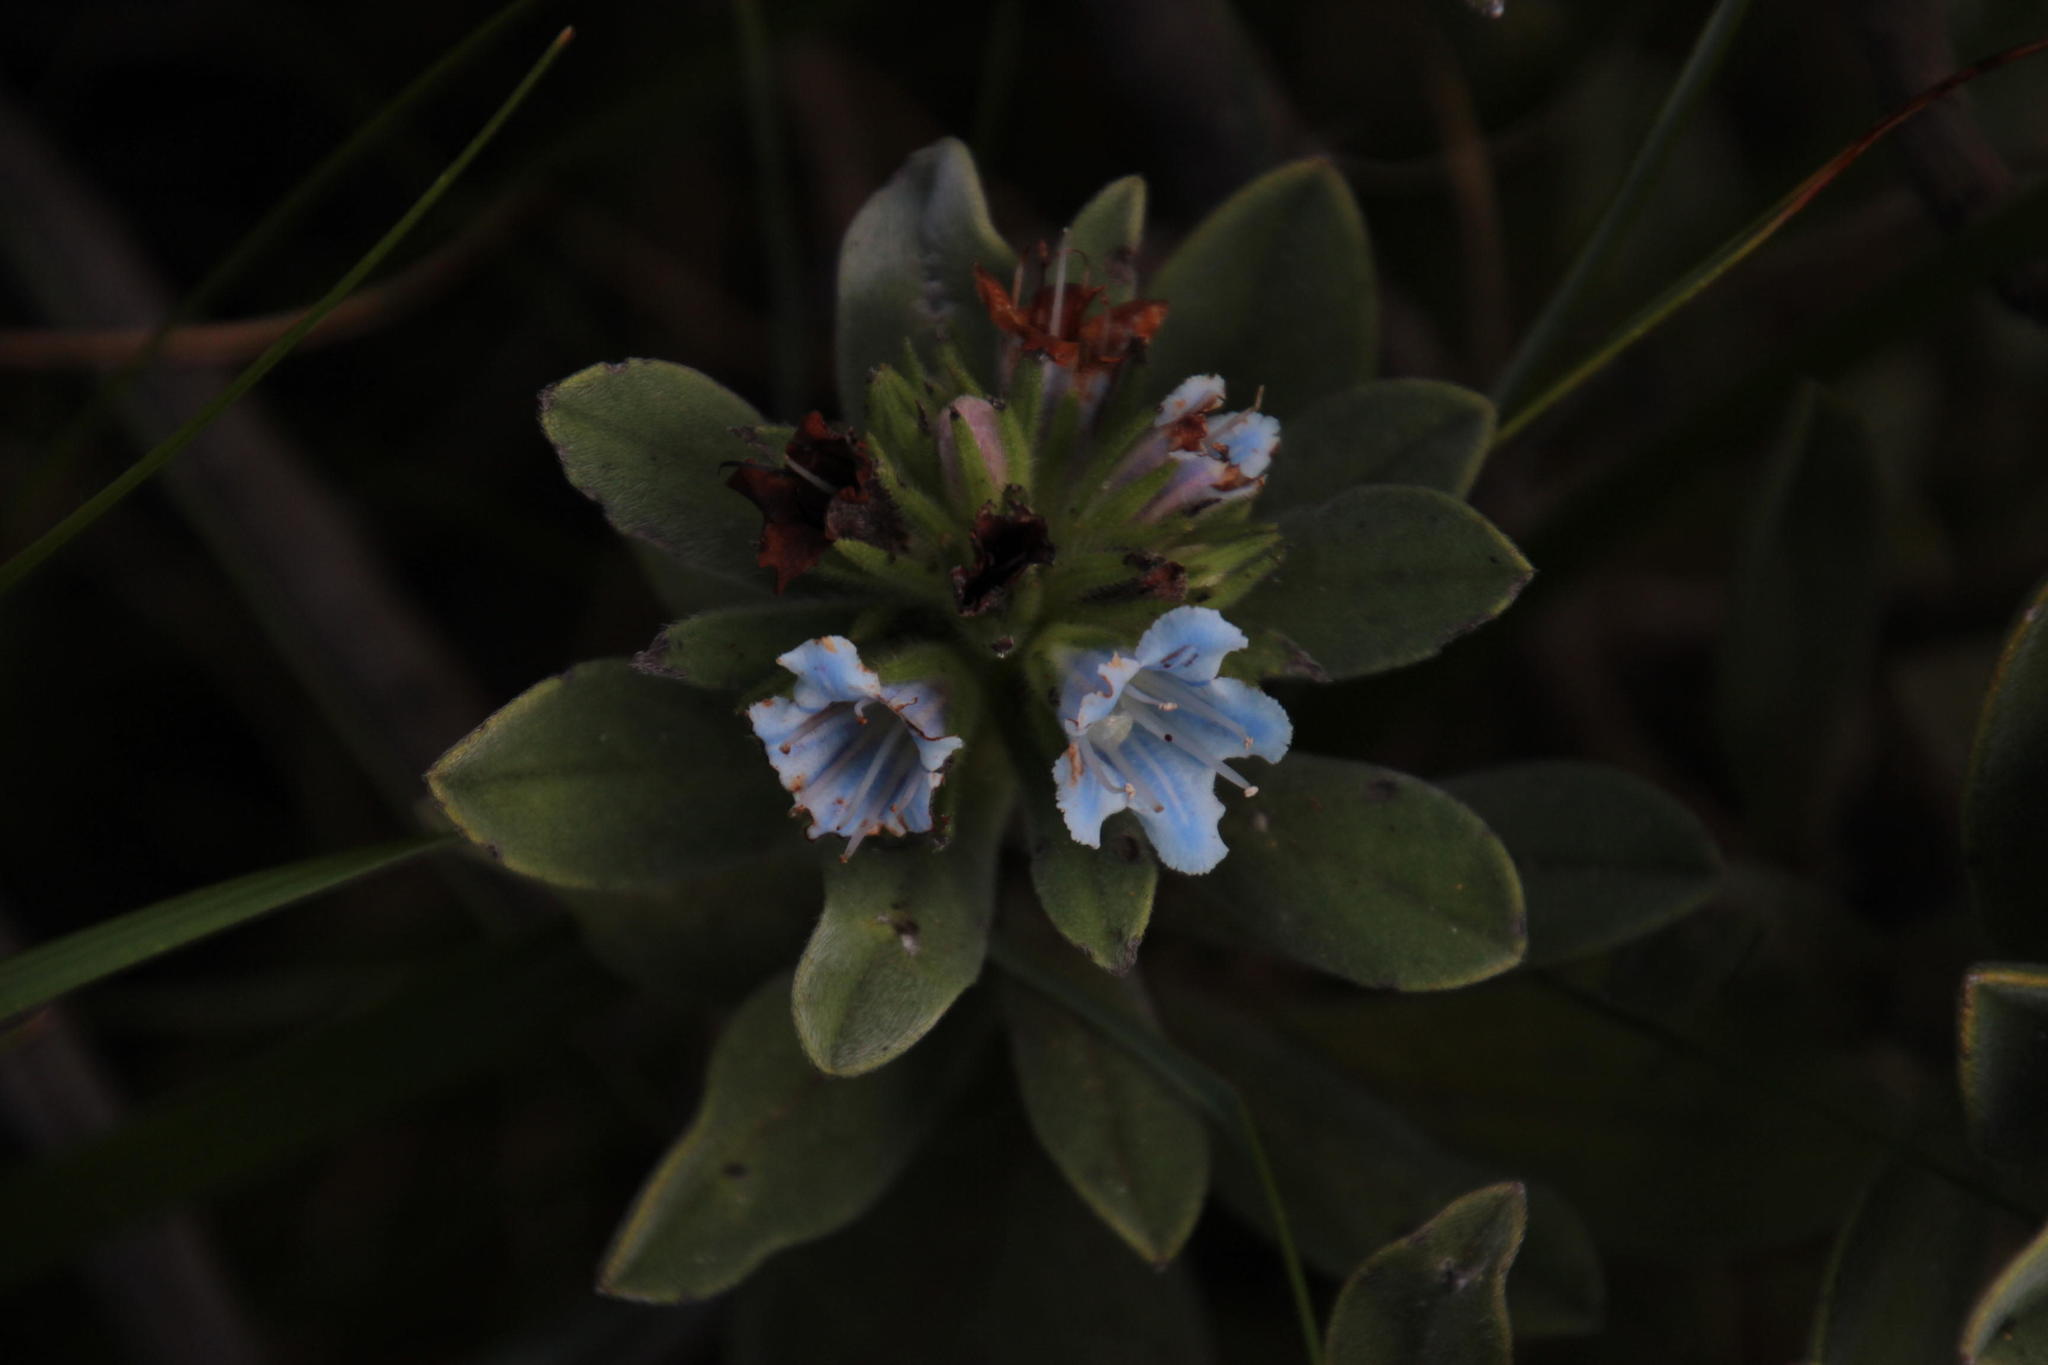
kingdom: Plantae
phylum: Tracheophyta
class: Magnoliopsida
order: Boraginales
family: Boraginaceae
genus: Lobostemon
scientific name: Lobostemon montanus
